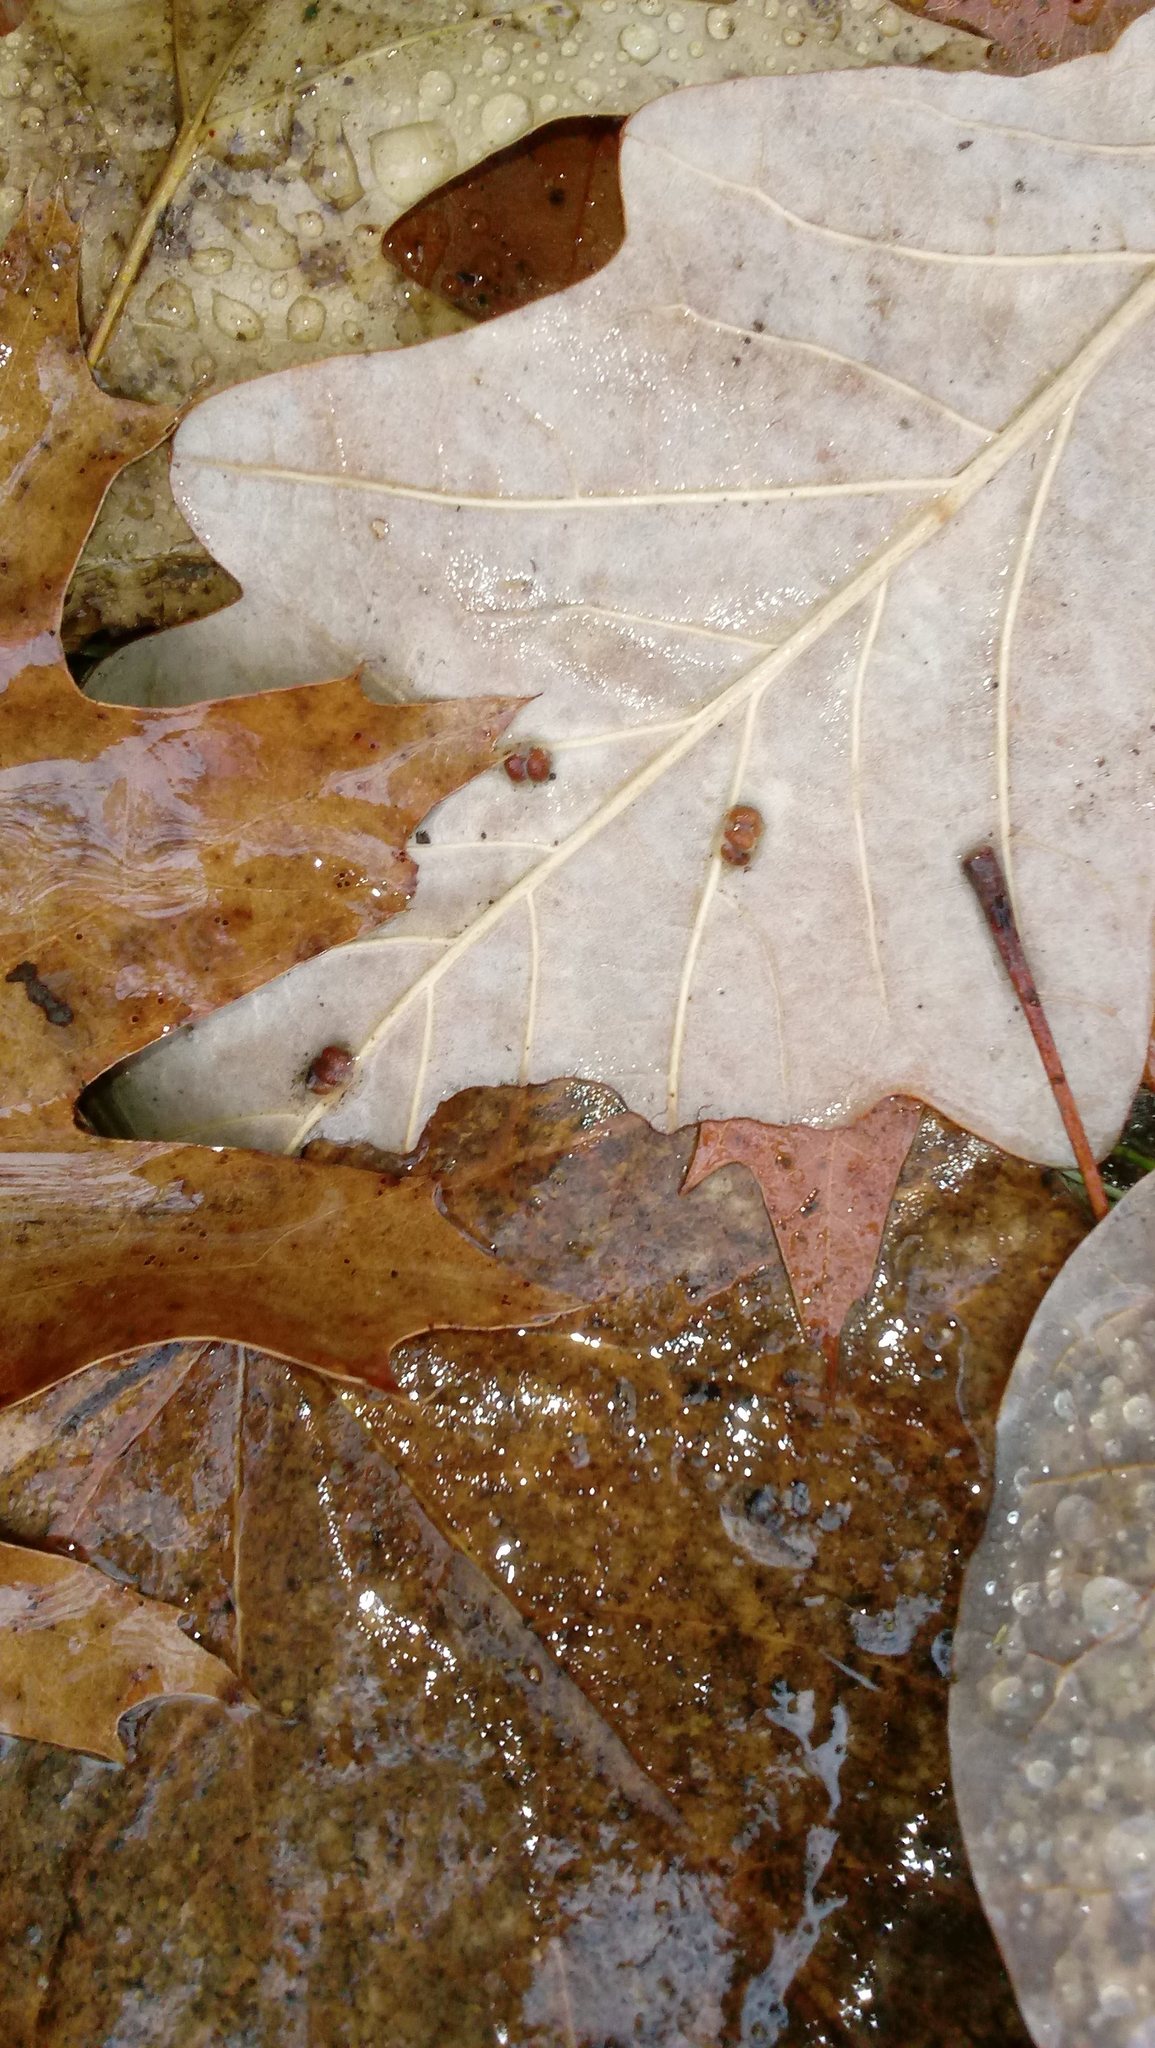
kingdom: Animalia
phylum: Arthropoda
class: Insecta
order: Hymenoptera
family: Cynipidae
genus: Andricus
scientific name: Andricus Druon ignotum
